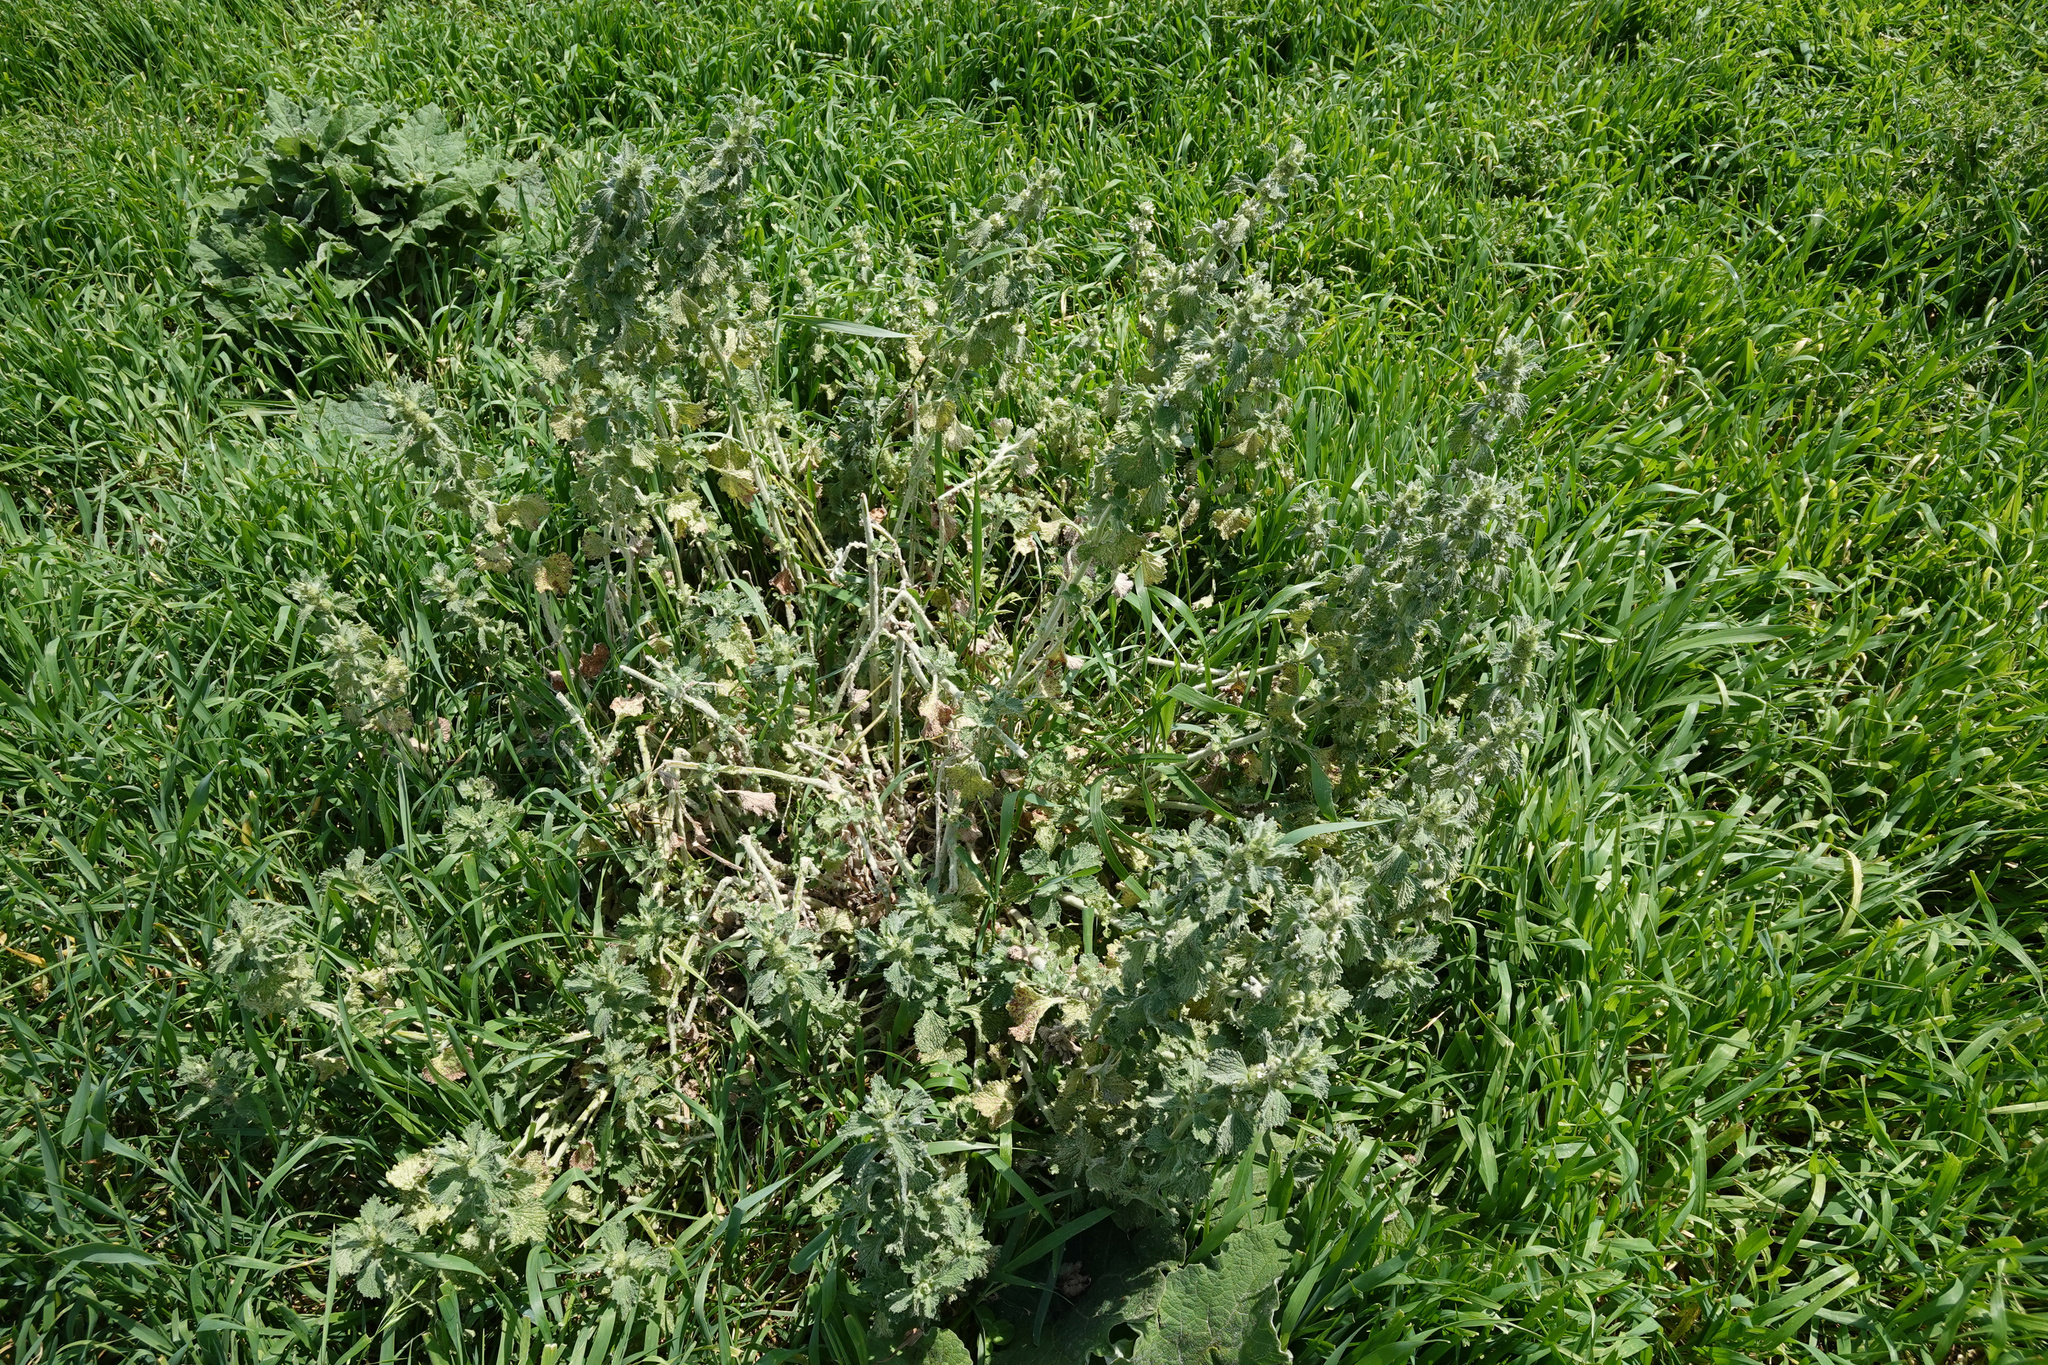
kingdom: Plantae
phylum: Tracheophyta
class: Magnoliopsida
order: Lamiales
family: Lamiaceae
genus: Marrubium
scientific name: Marrubium vulgare
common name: Horehound
